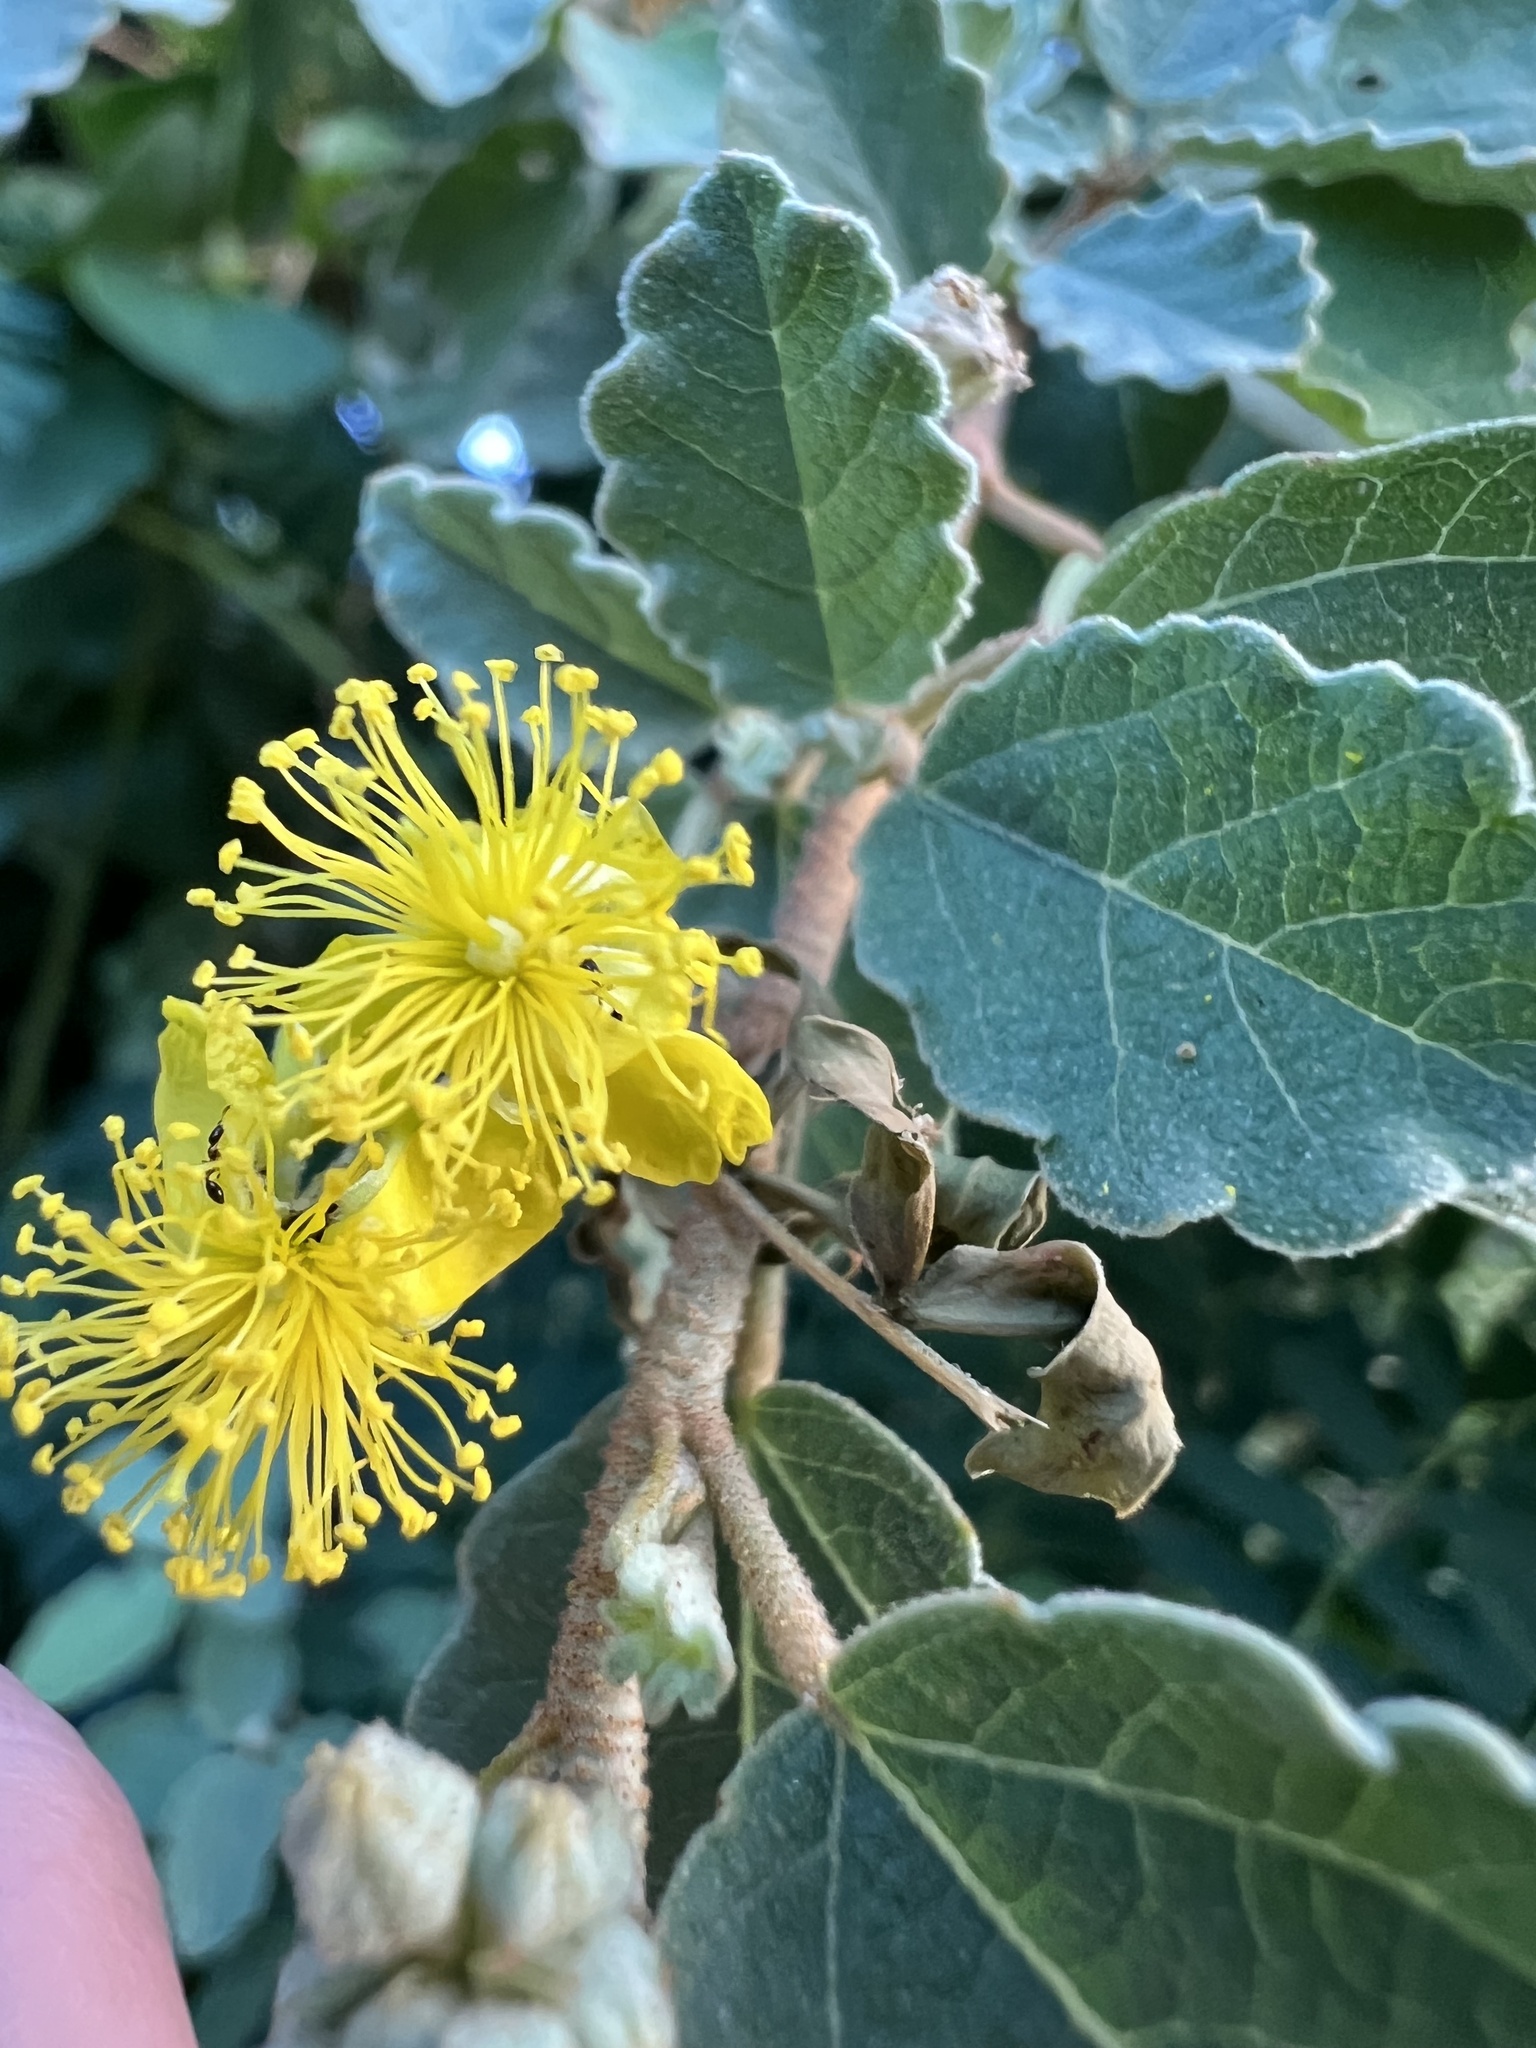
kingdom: Plantae
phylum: Tracheophyta
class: Magnoliopsida
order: Malvales
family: Malvaceae
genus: Corchorus
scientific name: Corchorus hirsutus
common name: Jackswitch
